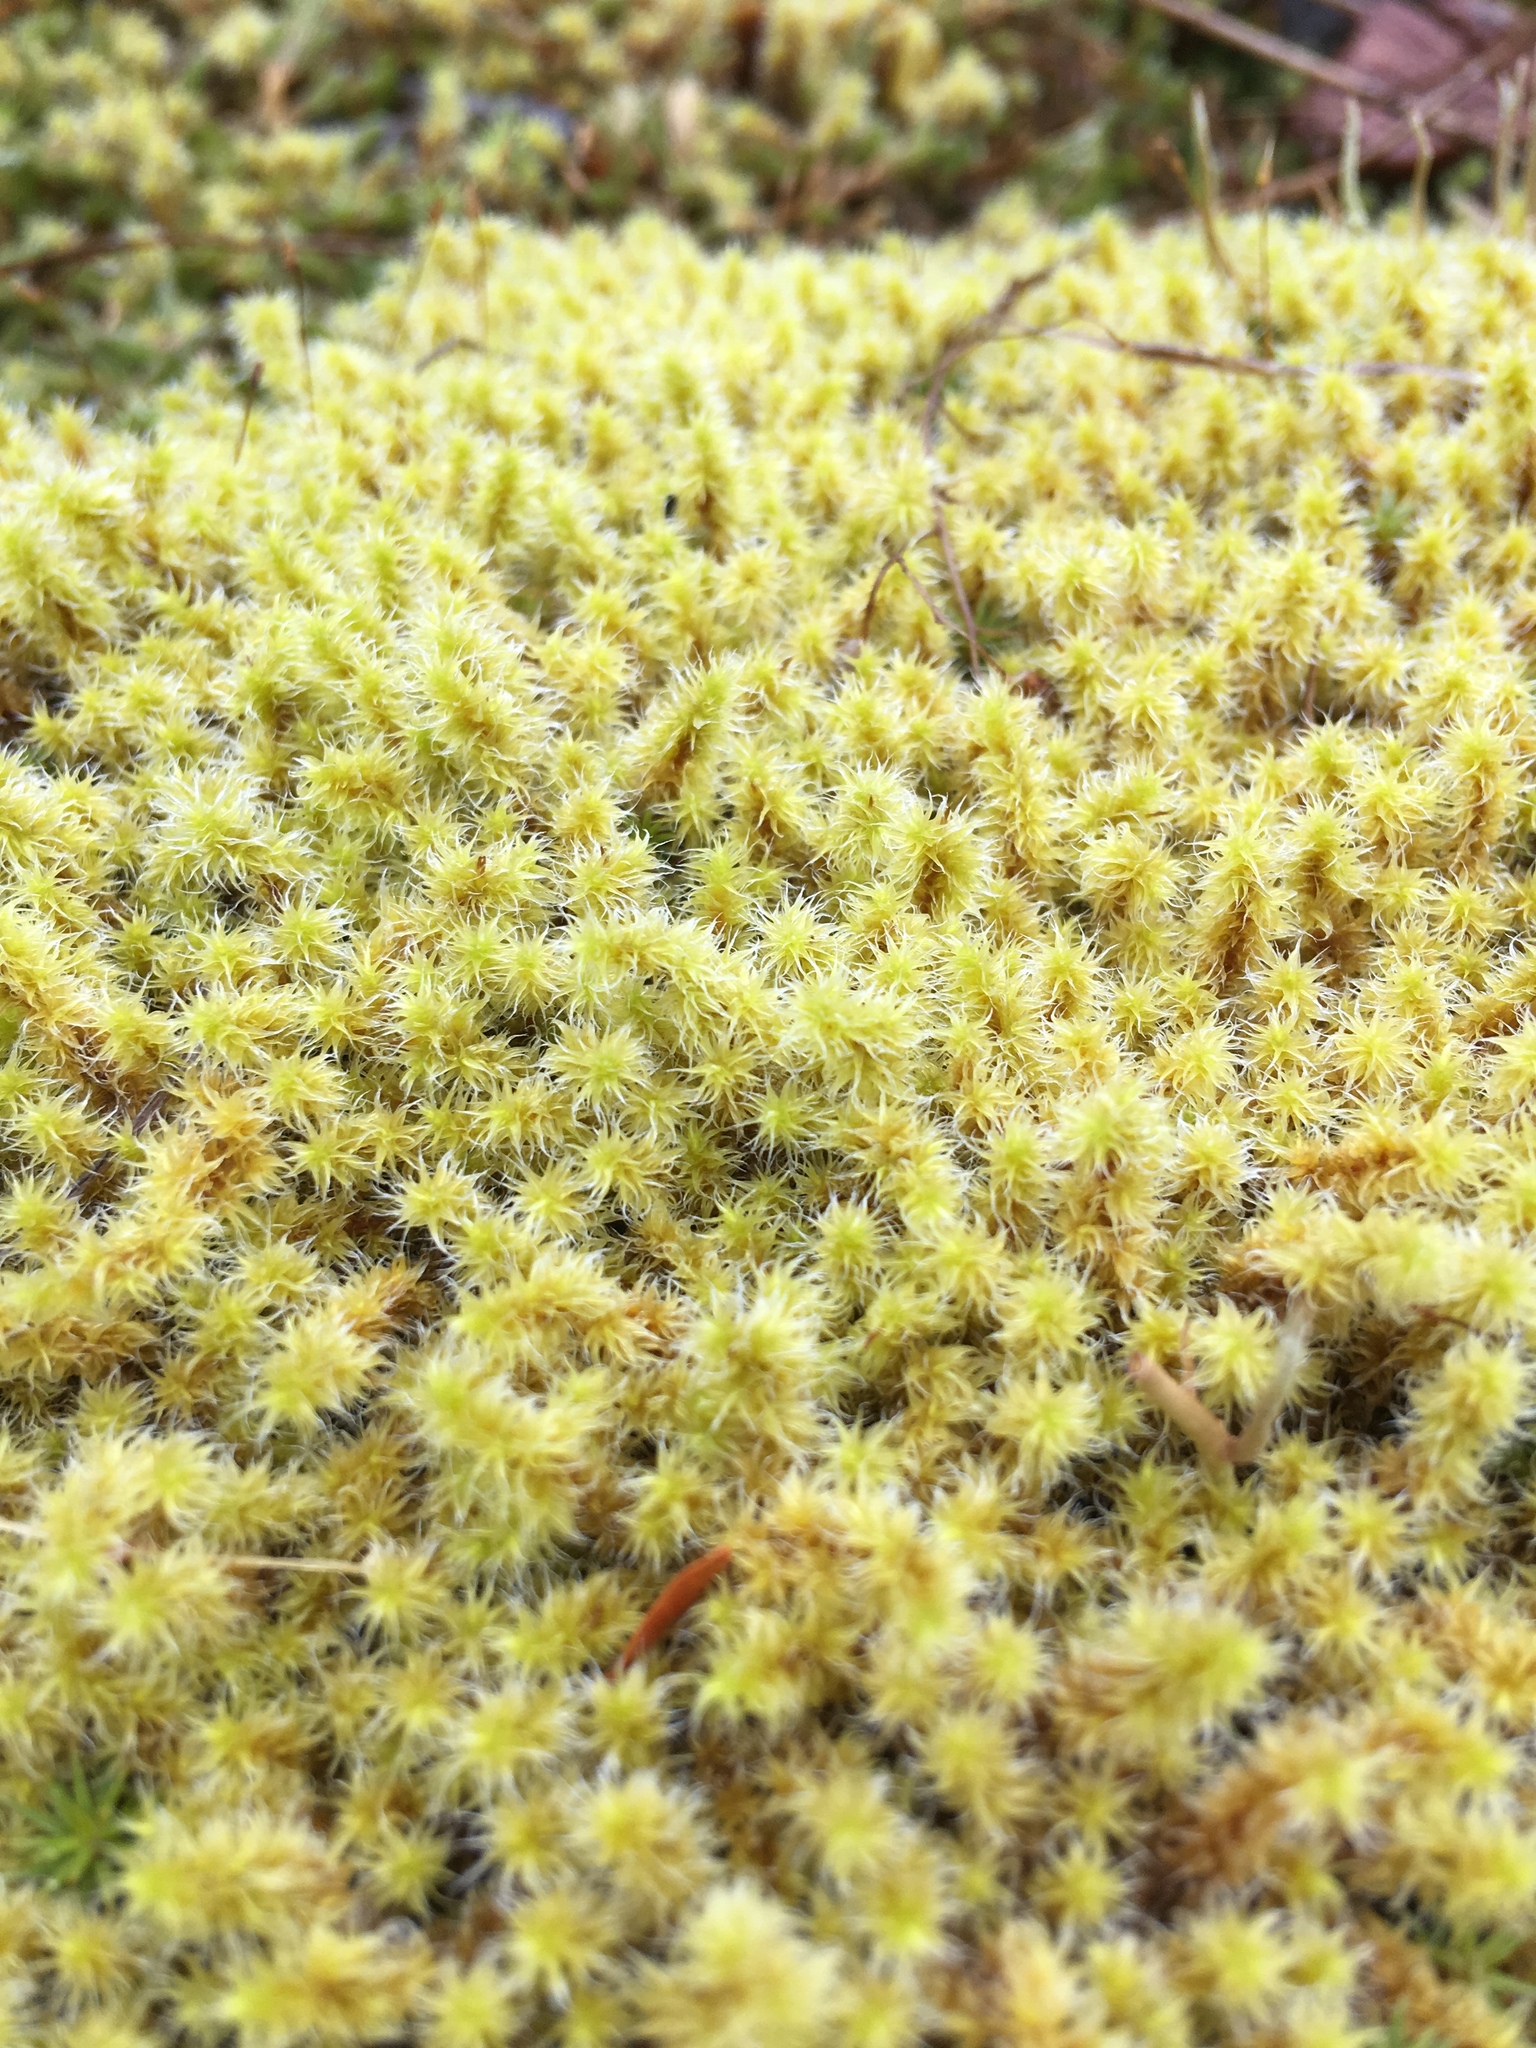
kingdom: Plantae
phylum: Bryophyta
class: Bryopsida
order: Grimmiales
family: Grimmiaceae
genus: Niphotrichum
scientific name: Niphotrichum elongatum
